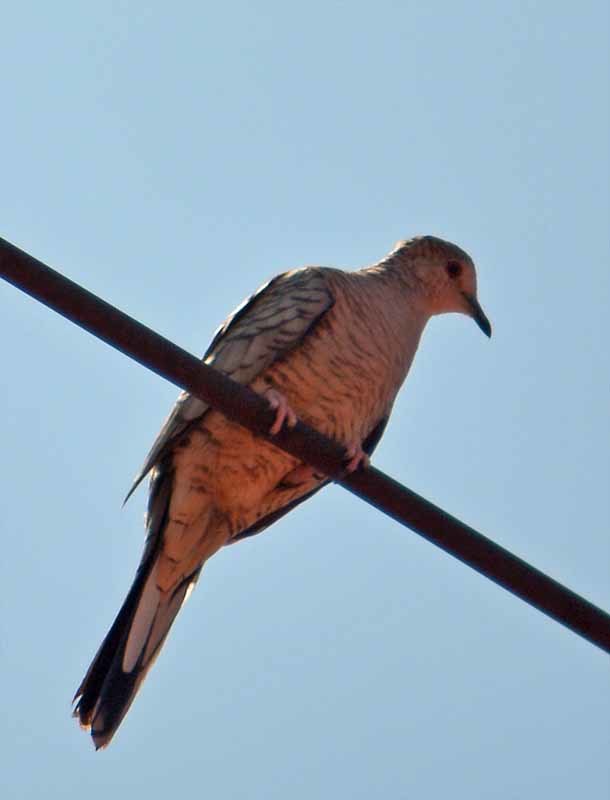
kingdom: Animalia
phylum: Chordata
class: Aves
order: Columbiformes
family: Columbidae
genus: Columbina
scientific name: Columbina inca
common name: Inca dove
